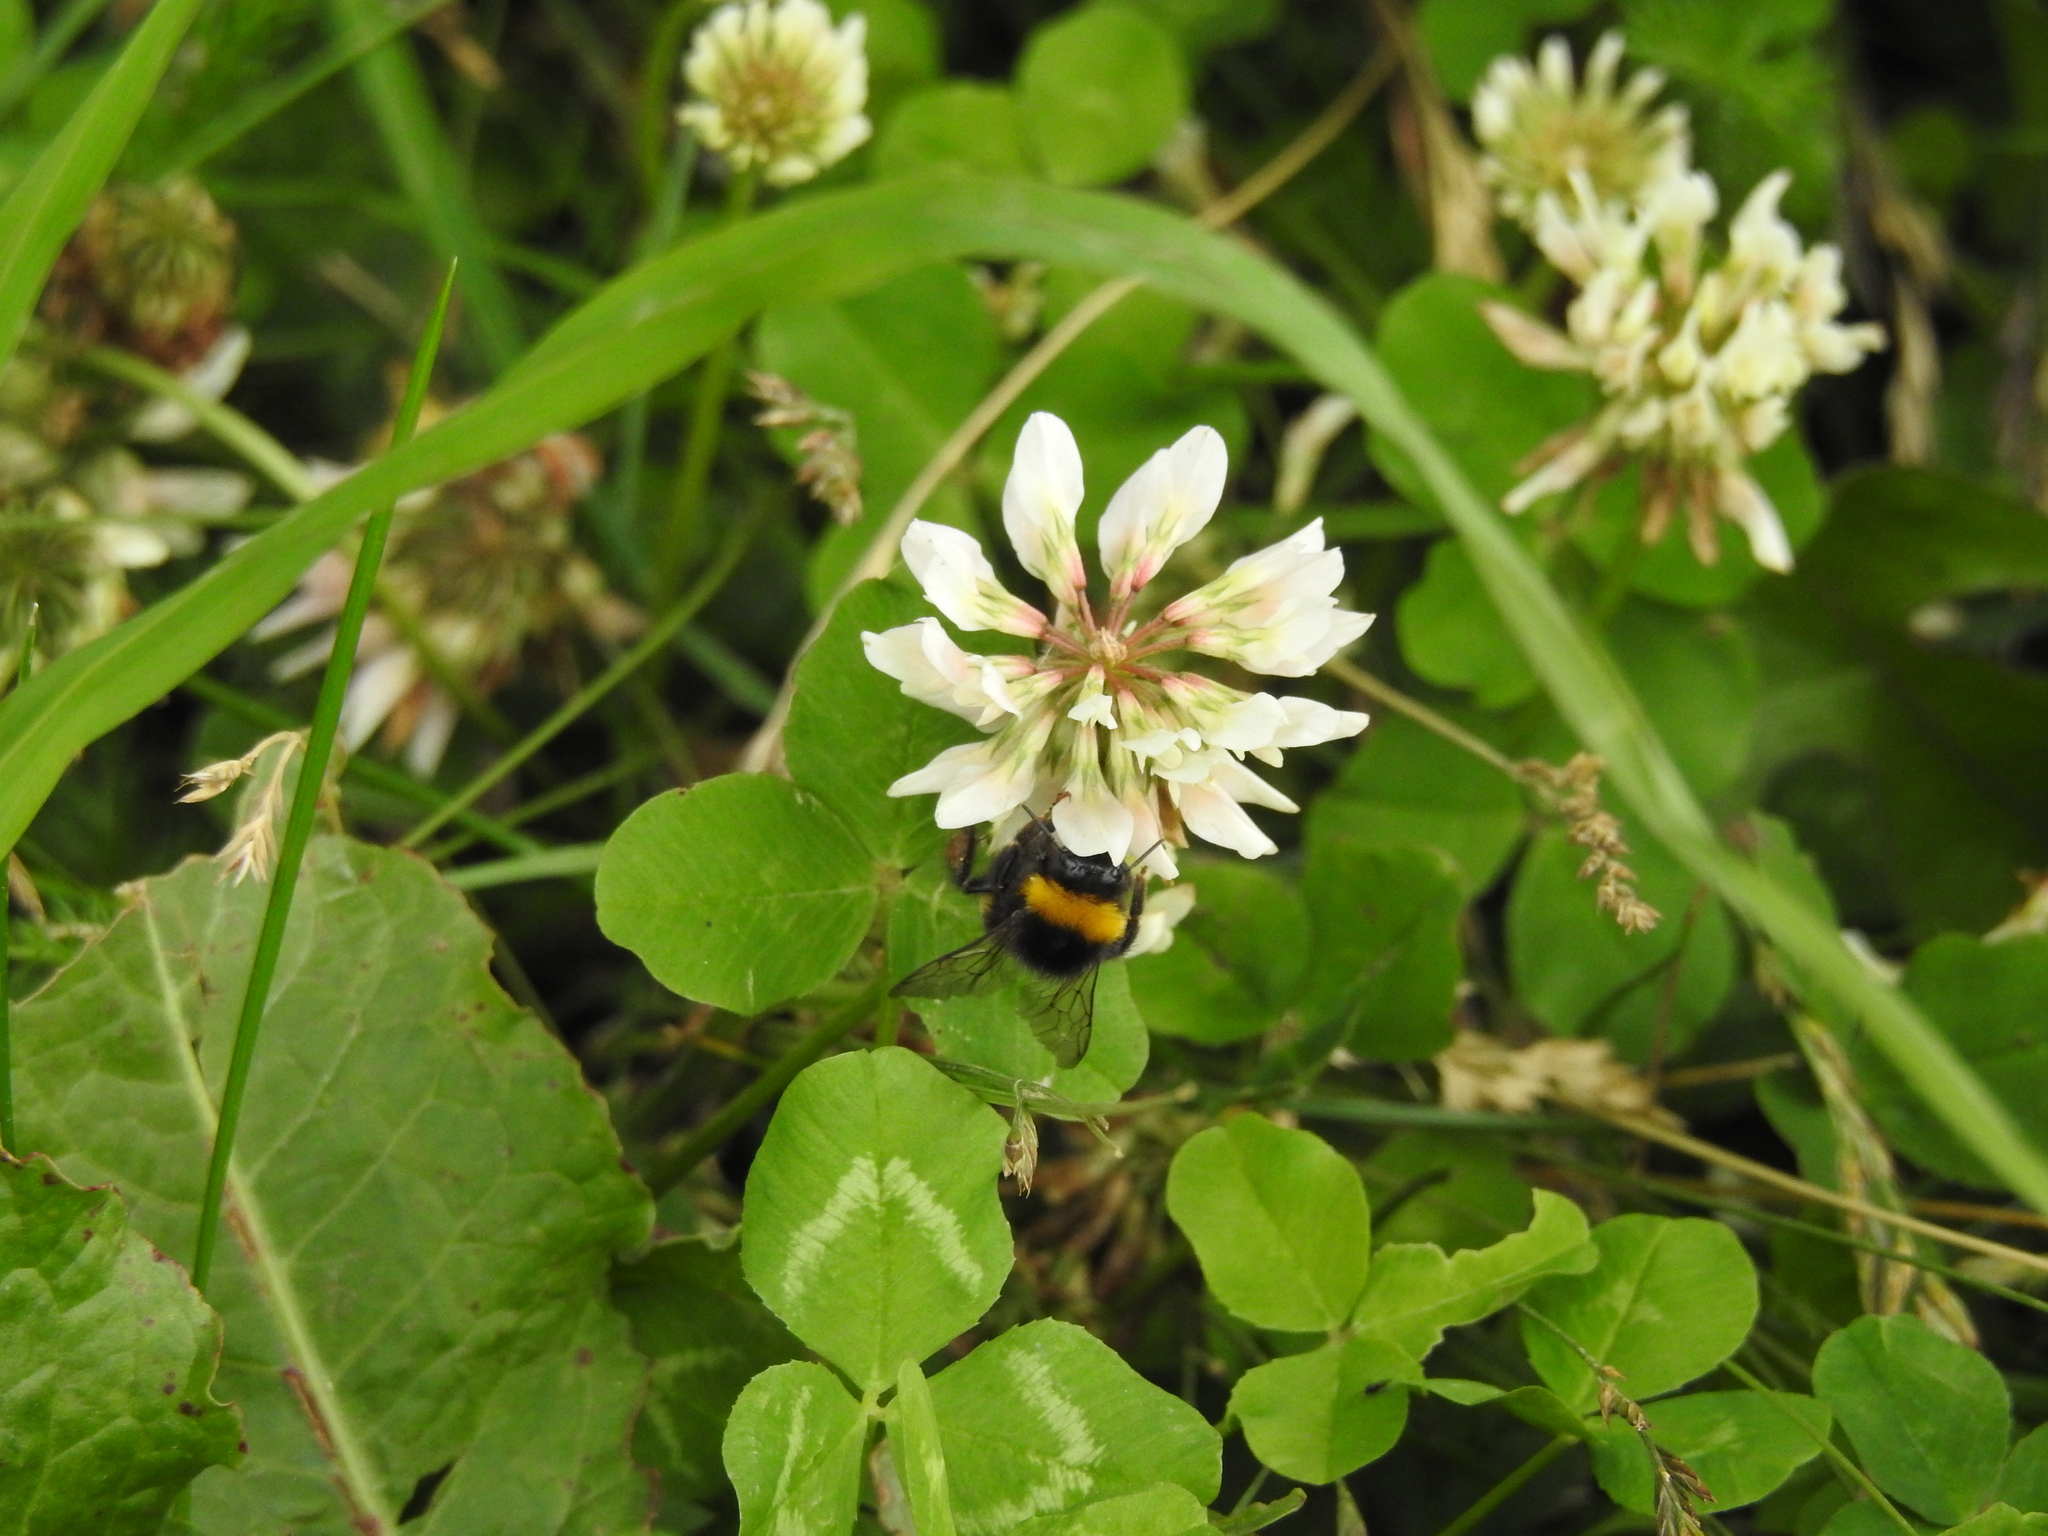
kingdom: Animalia
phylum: Arthropoda
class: Insecta
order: Hymenoptera
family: Apidae
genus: Bombus
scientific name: Bombus terrestris
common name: Buff-tailed bumblebee
